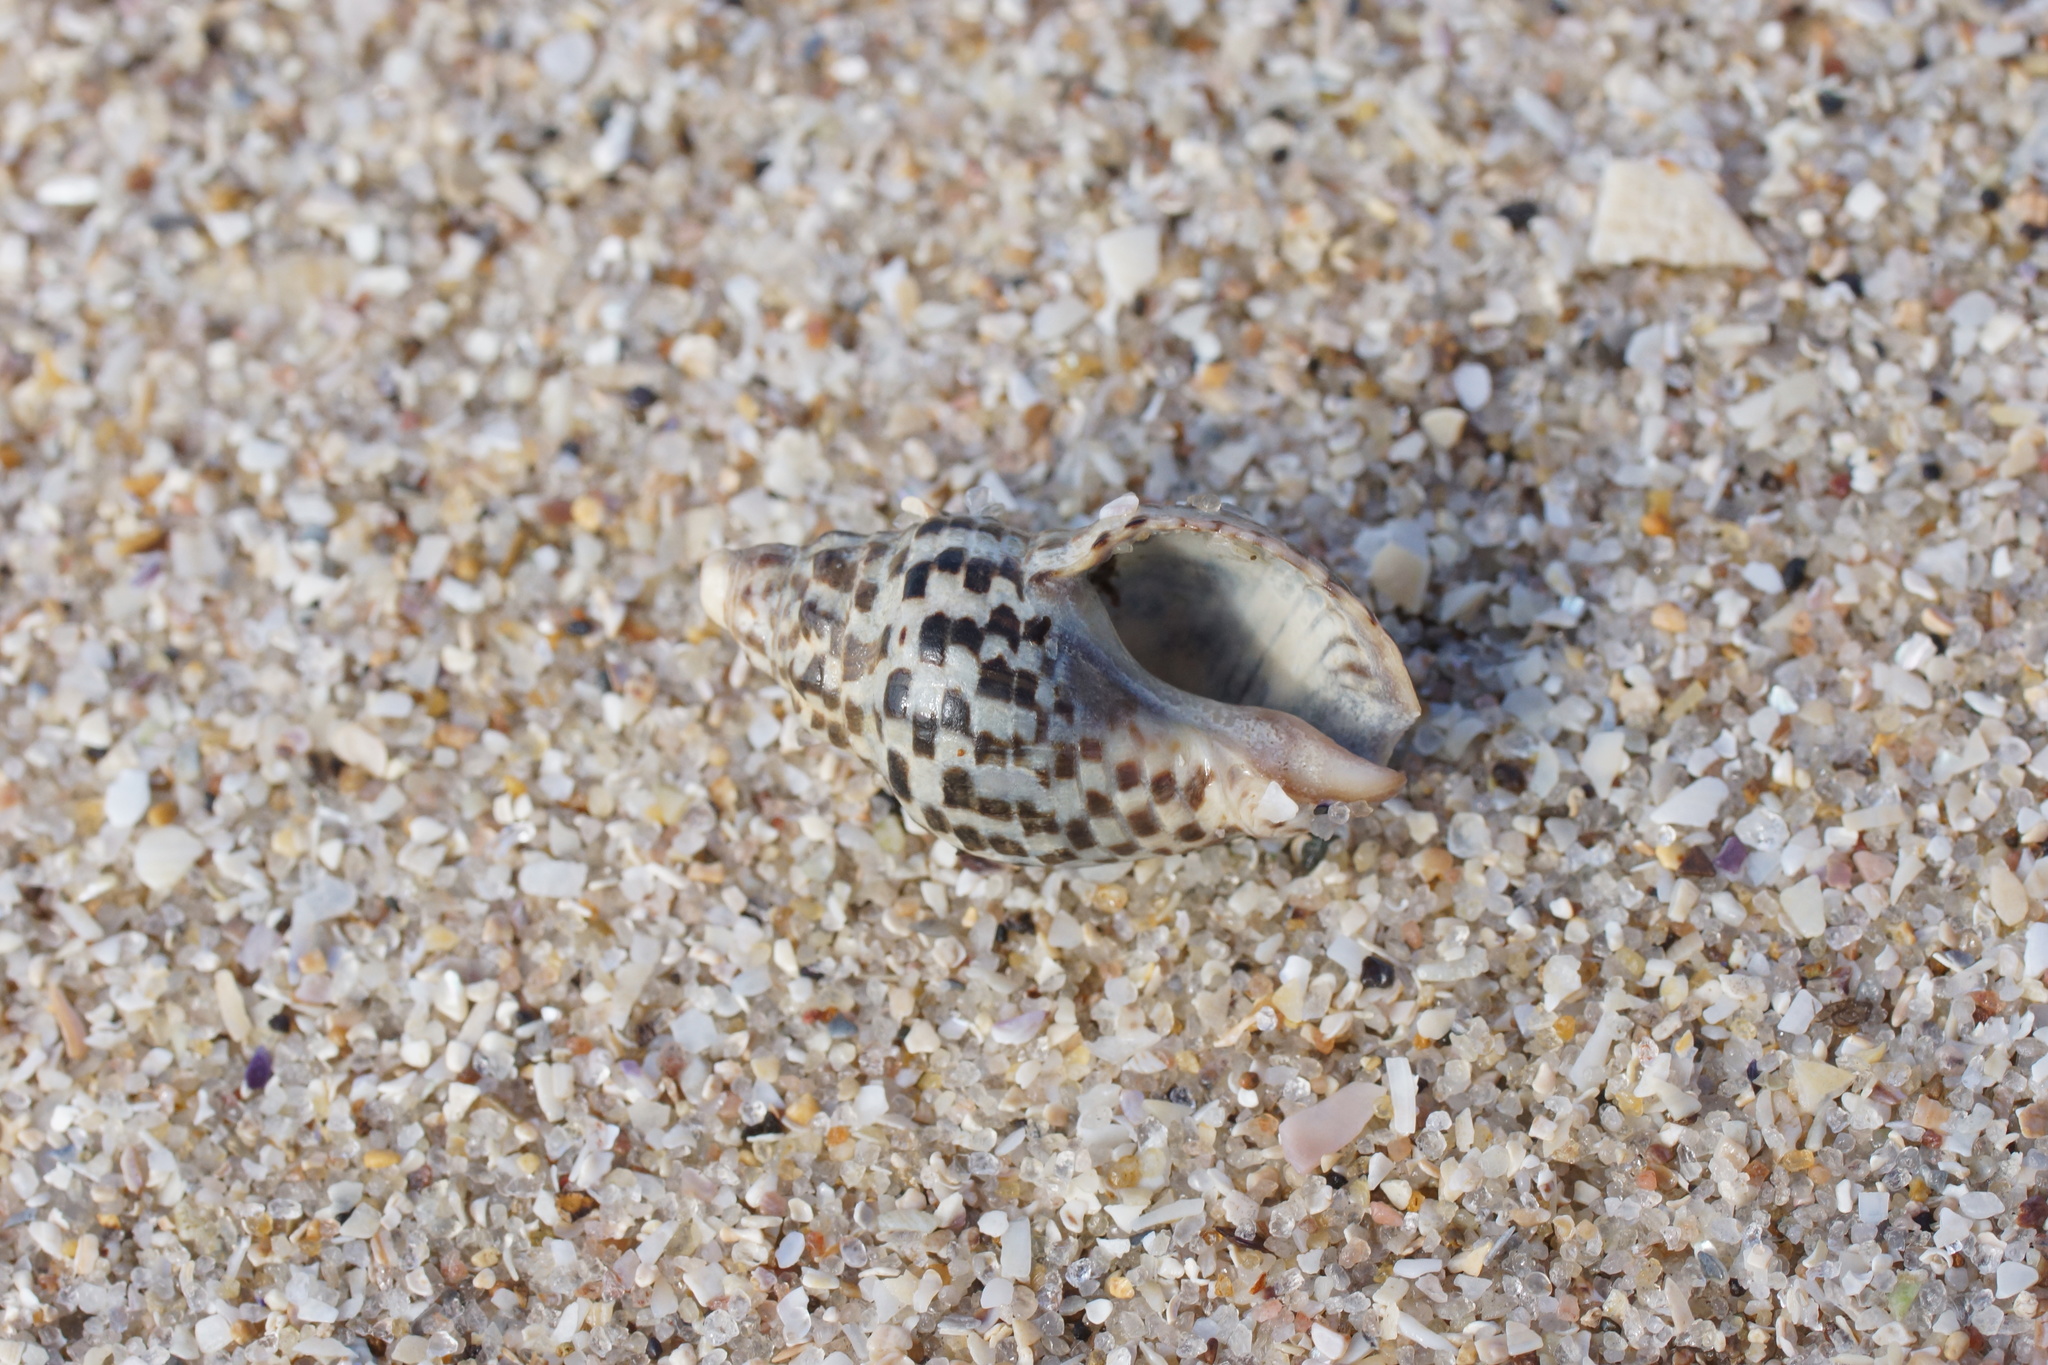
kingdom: Animalia
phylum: Mollusca
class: Gastropoda
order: Neogastropoda
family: Cominellidae
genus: Cominella
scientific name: Cominella lineolata
